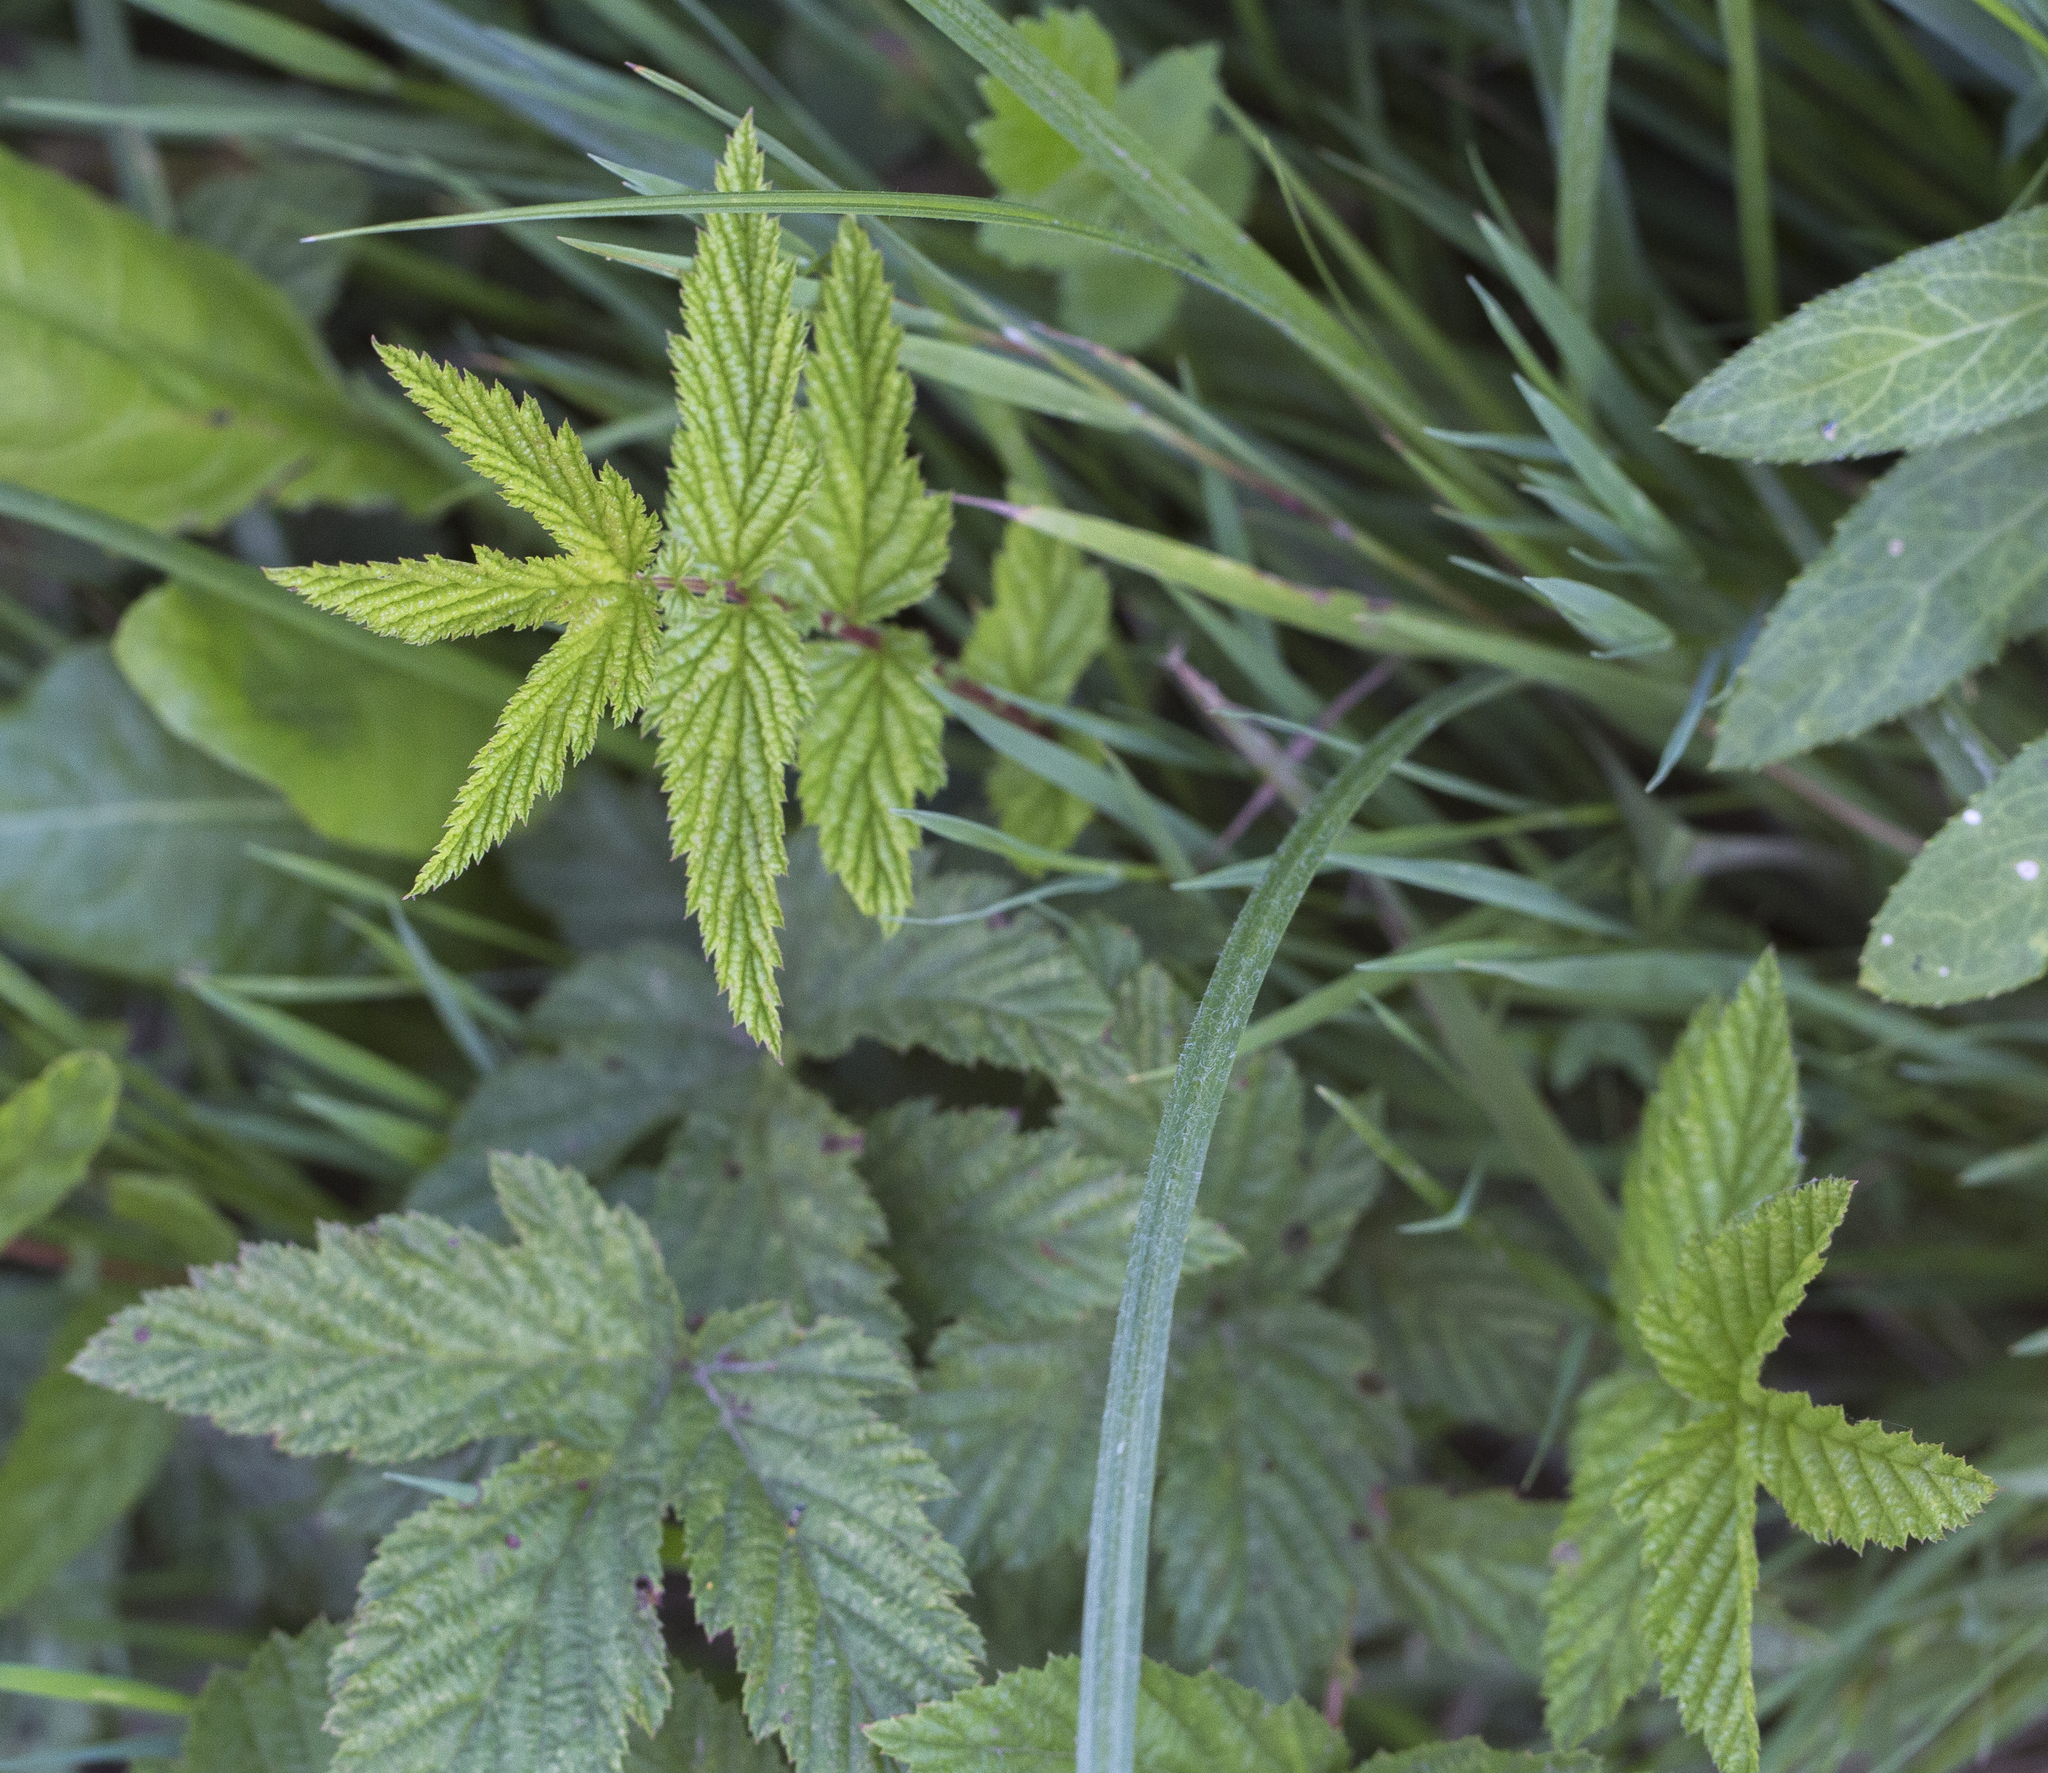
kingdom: Plantae
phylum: Tracheophyta
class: Magnoliopsida
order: Rosales
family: Rosaceae
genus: Filipendula
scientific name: Filipendula ulmaria
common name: Meadowsweet
